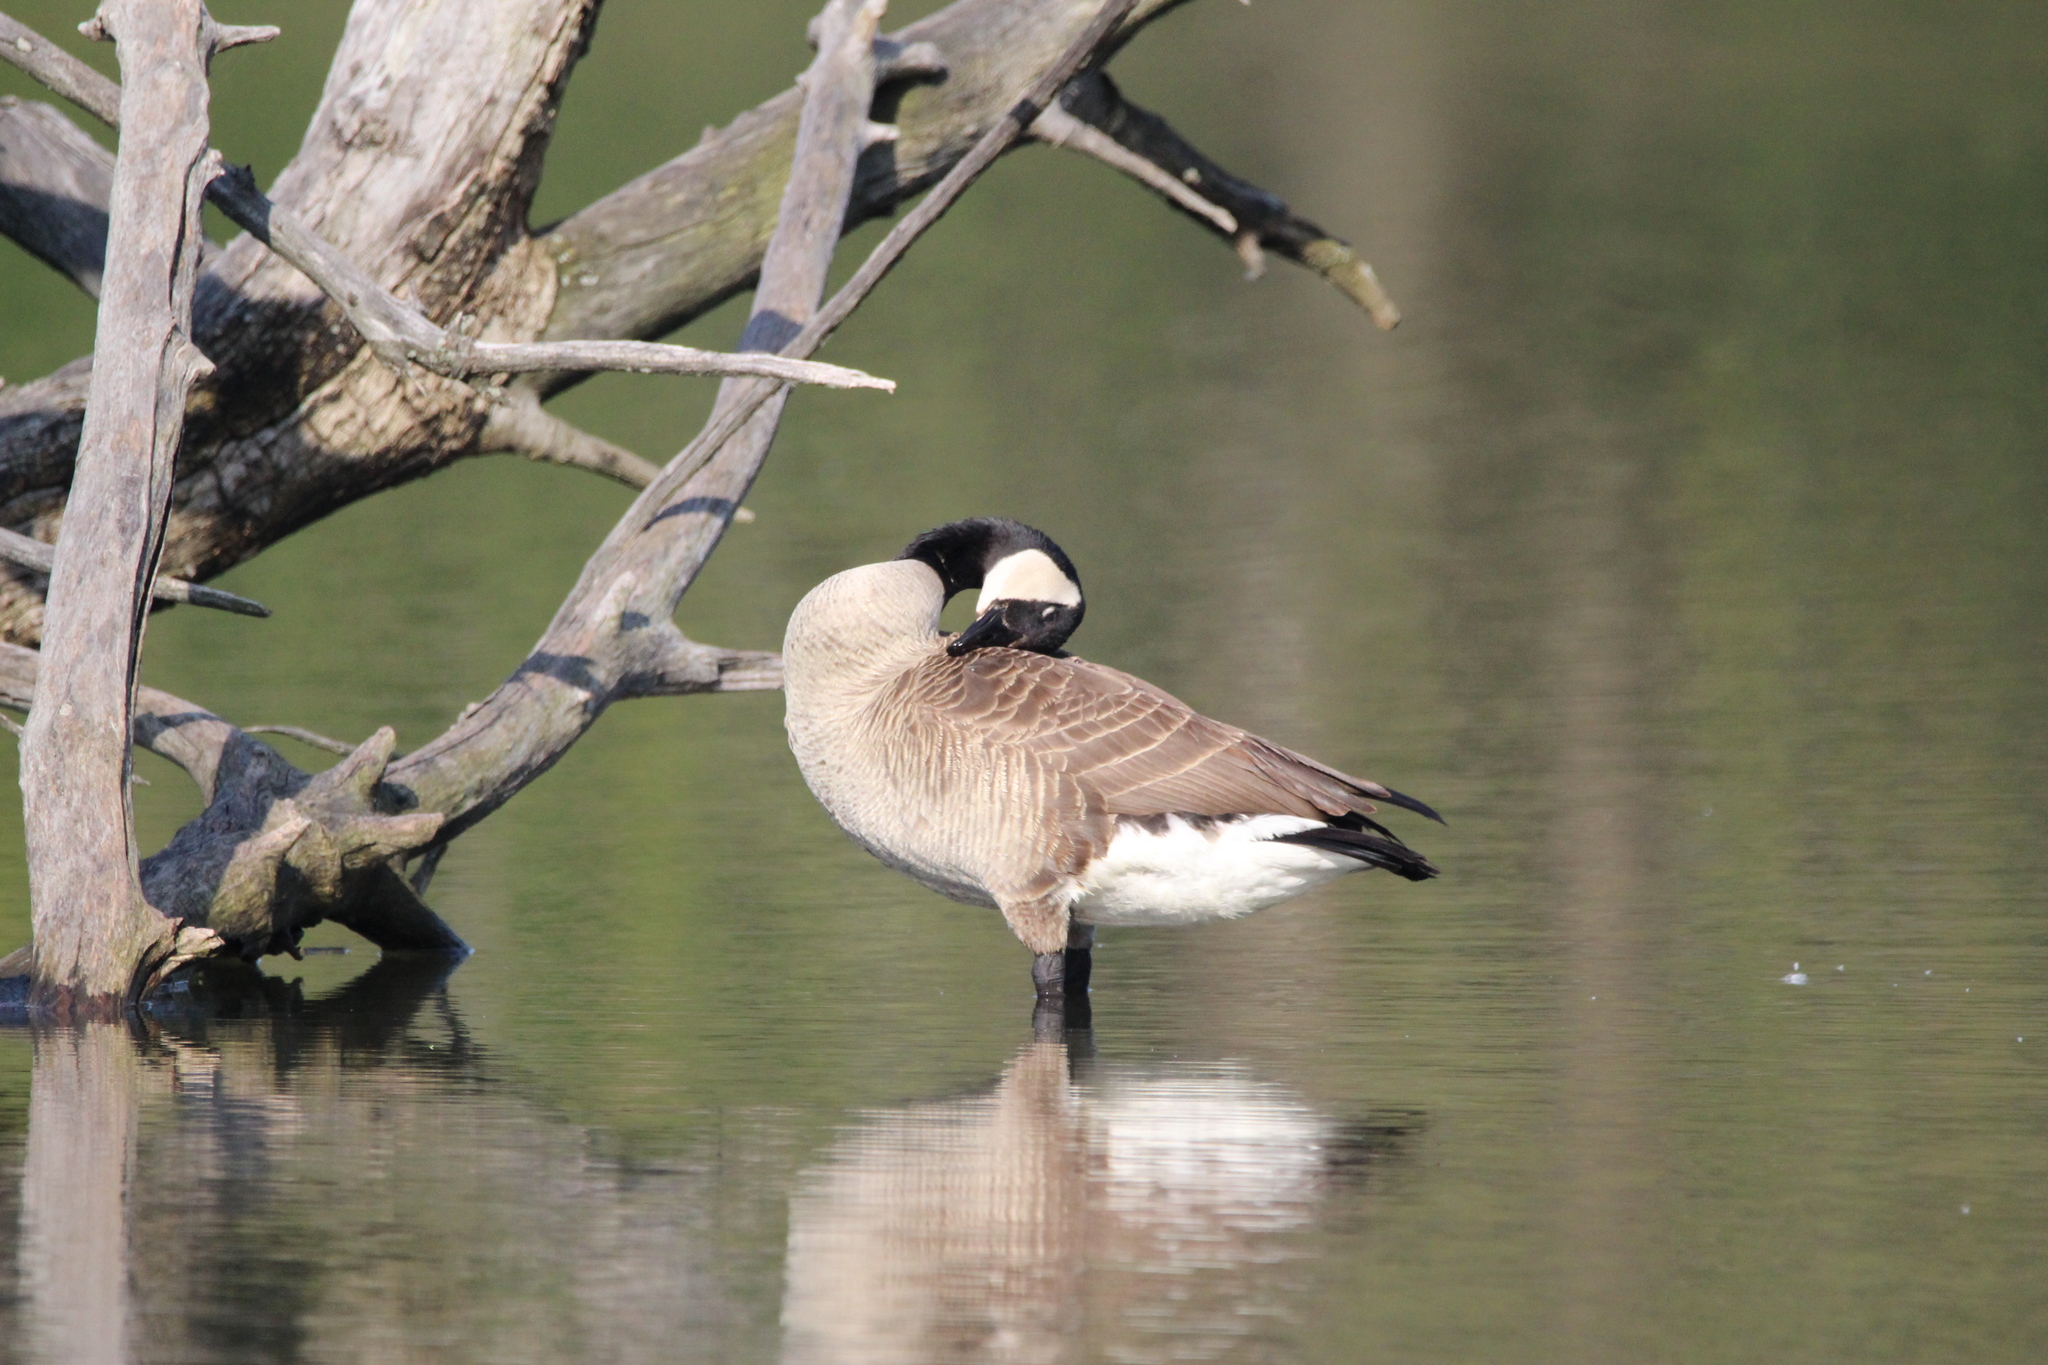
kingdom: Animalia
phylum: Chordata
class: Aves
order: Anseriformes
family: Anatidae
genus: Branta
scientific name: Branta canadensis
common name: Canada goose
